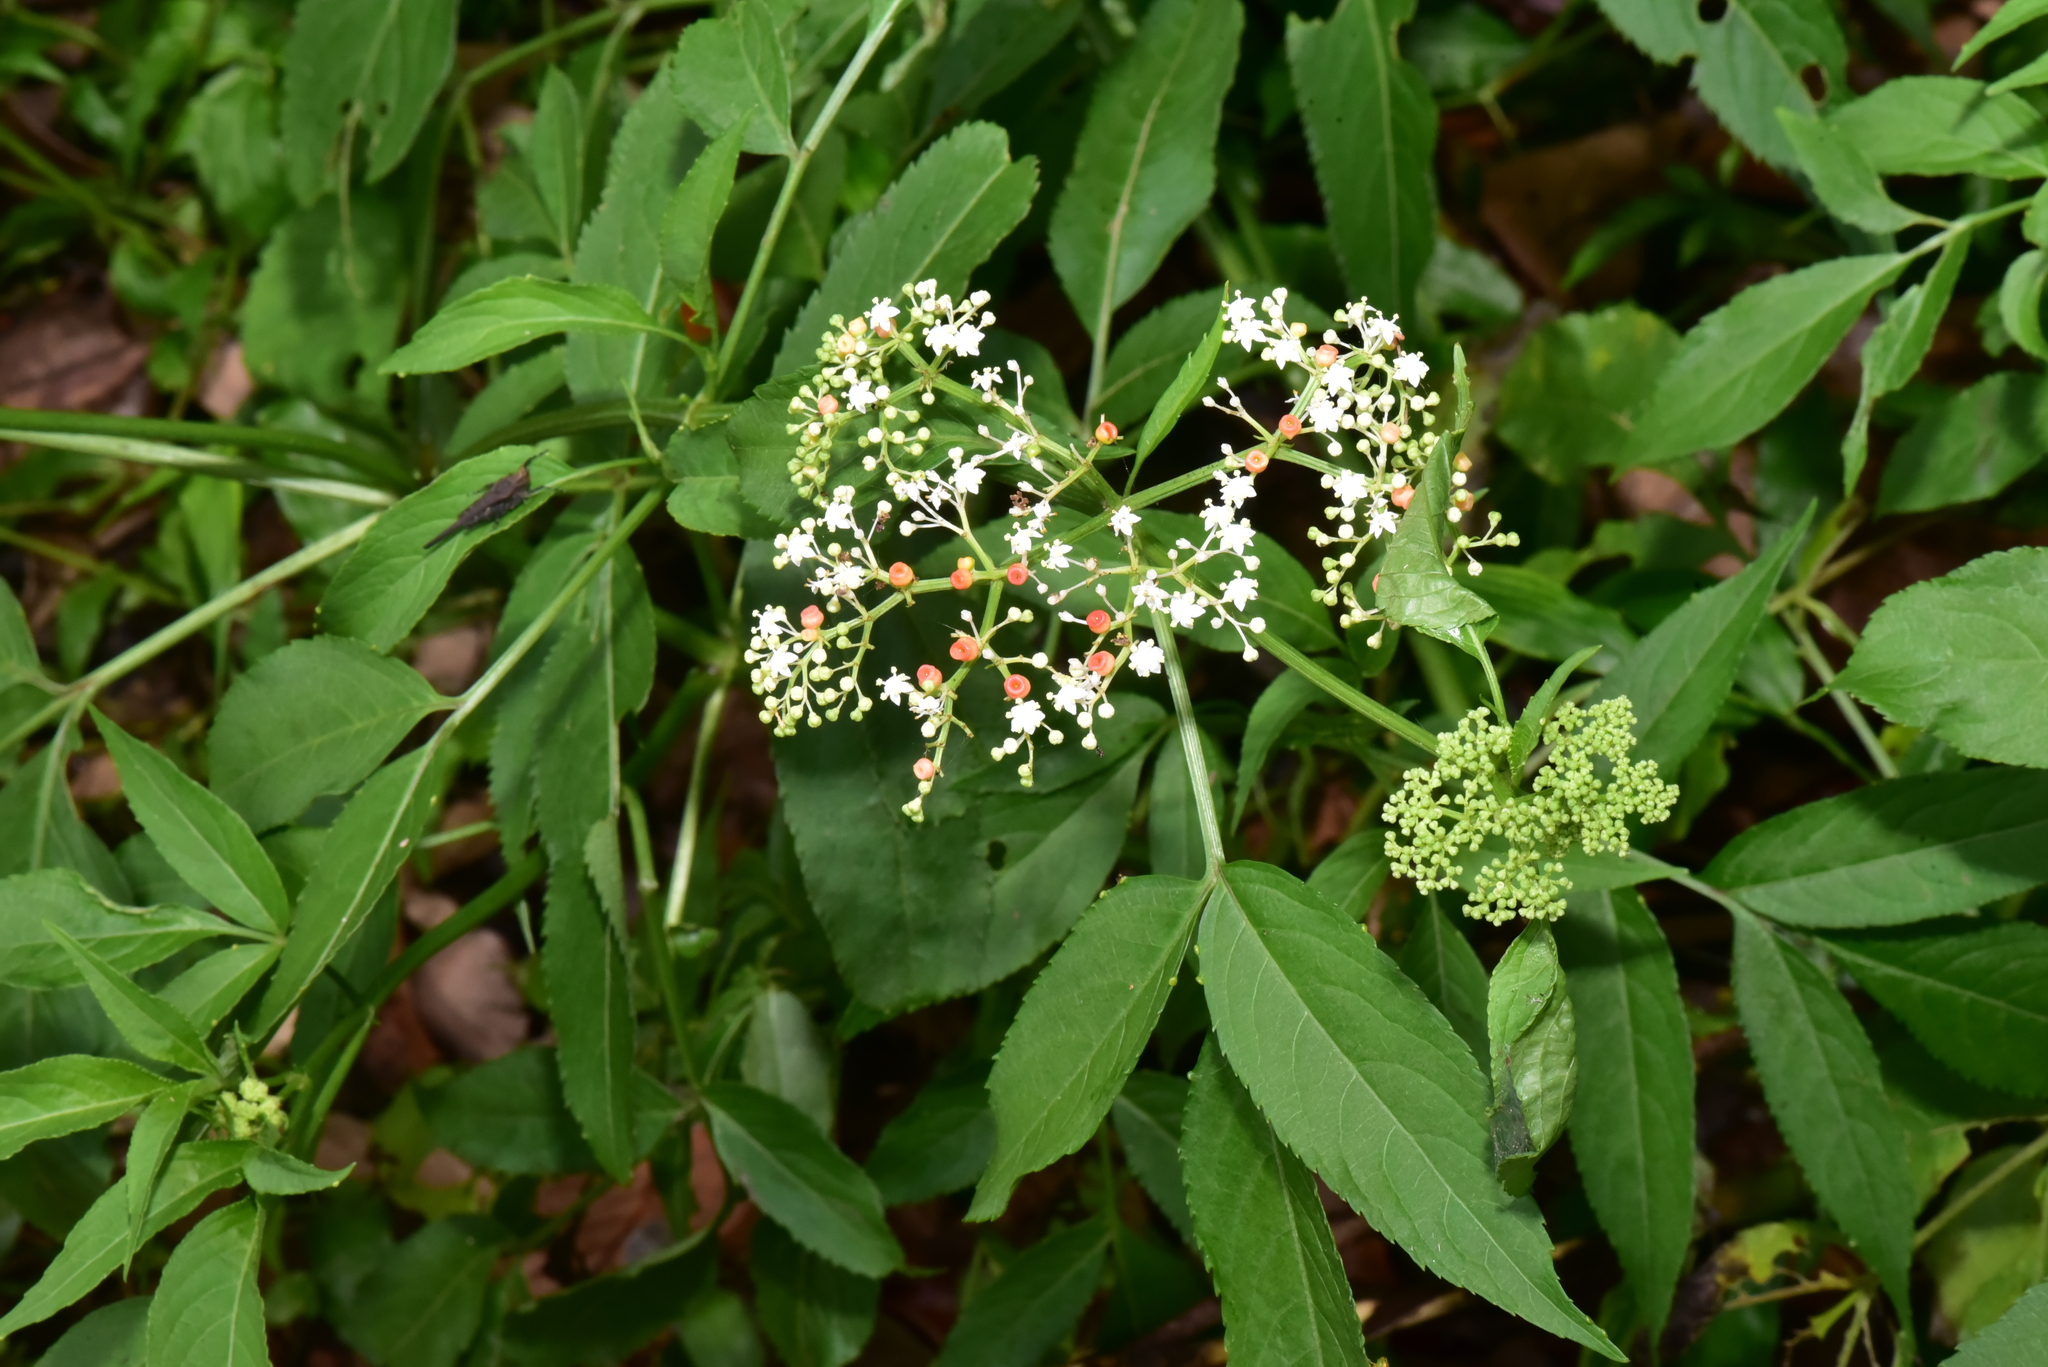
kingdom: Plantae
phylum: Tracheophyta
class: Magnoliopsida
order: Dipsacales
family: Viburnaceae
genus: Sambucus
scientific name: Sambucus javanica
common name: Chinese elder
